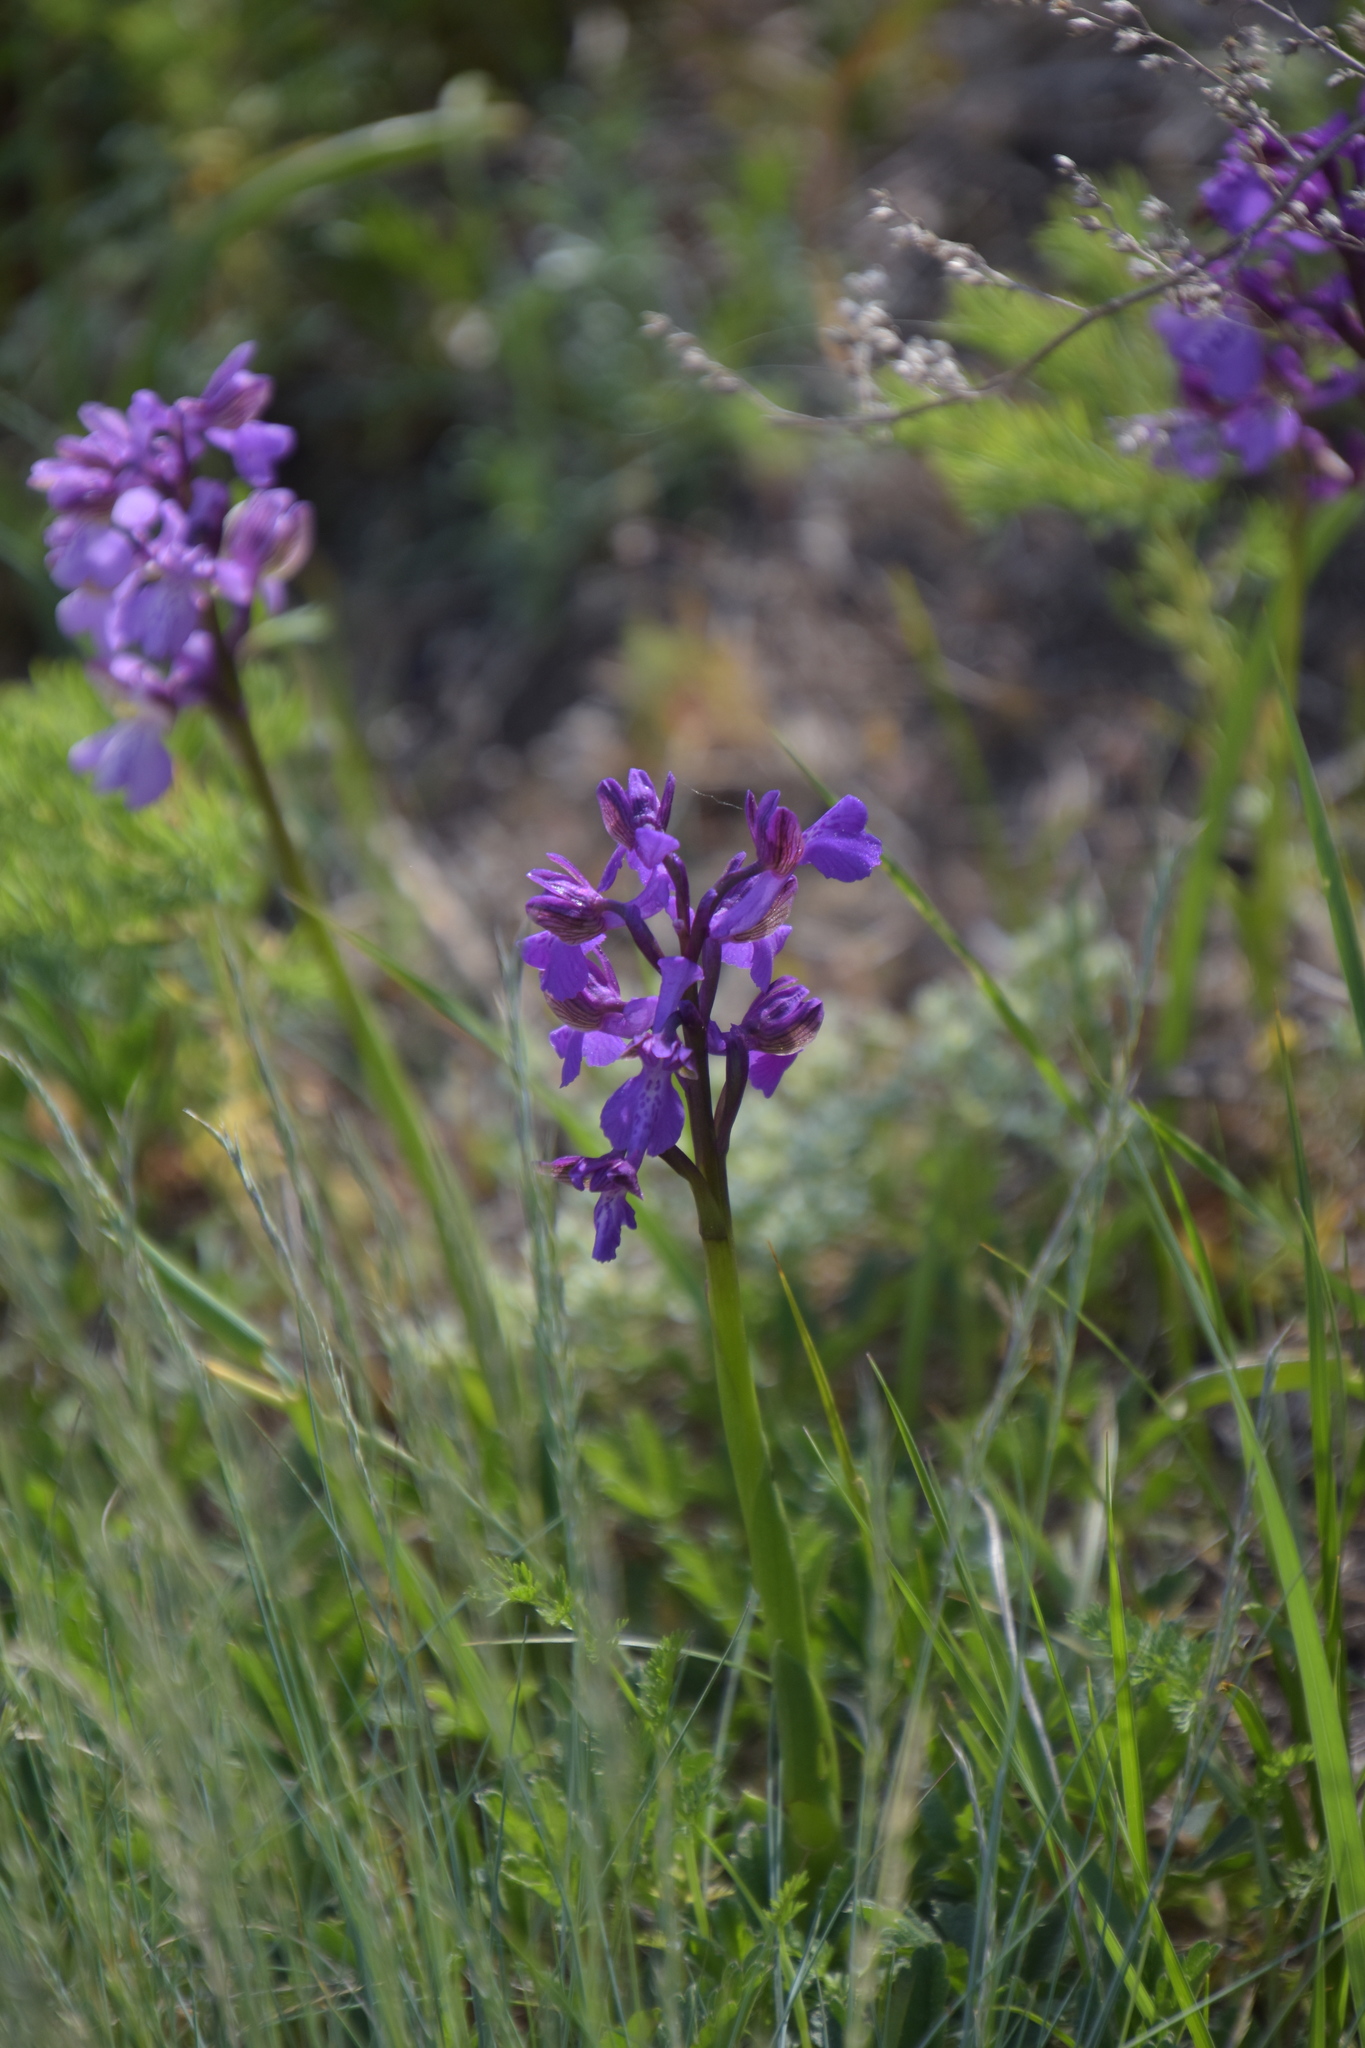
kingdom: Plantae
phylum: Tracheophyta
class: Liliopsida
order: Asparagales
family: Orchidaceae
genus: Anacamptis
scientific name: Anacamptis morio
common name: Green-winged orchid
